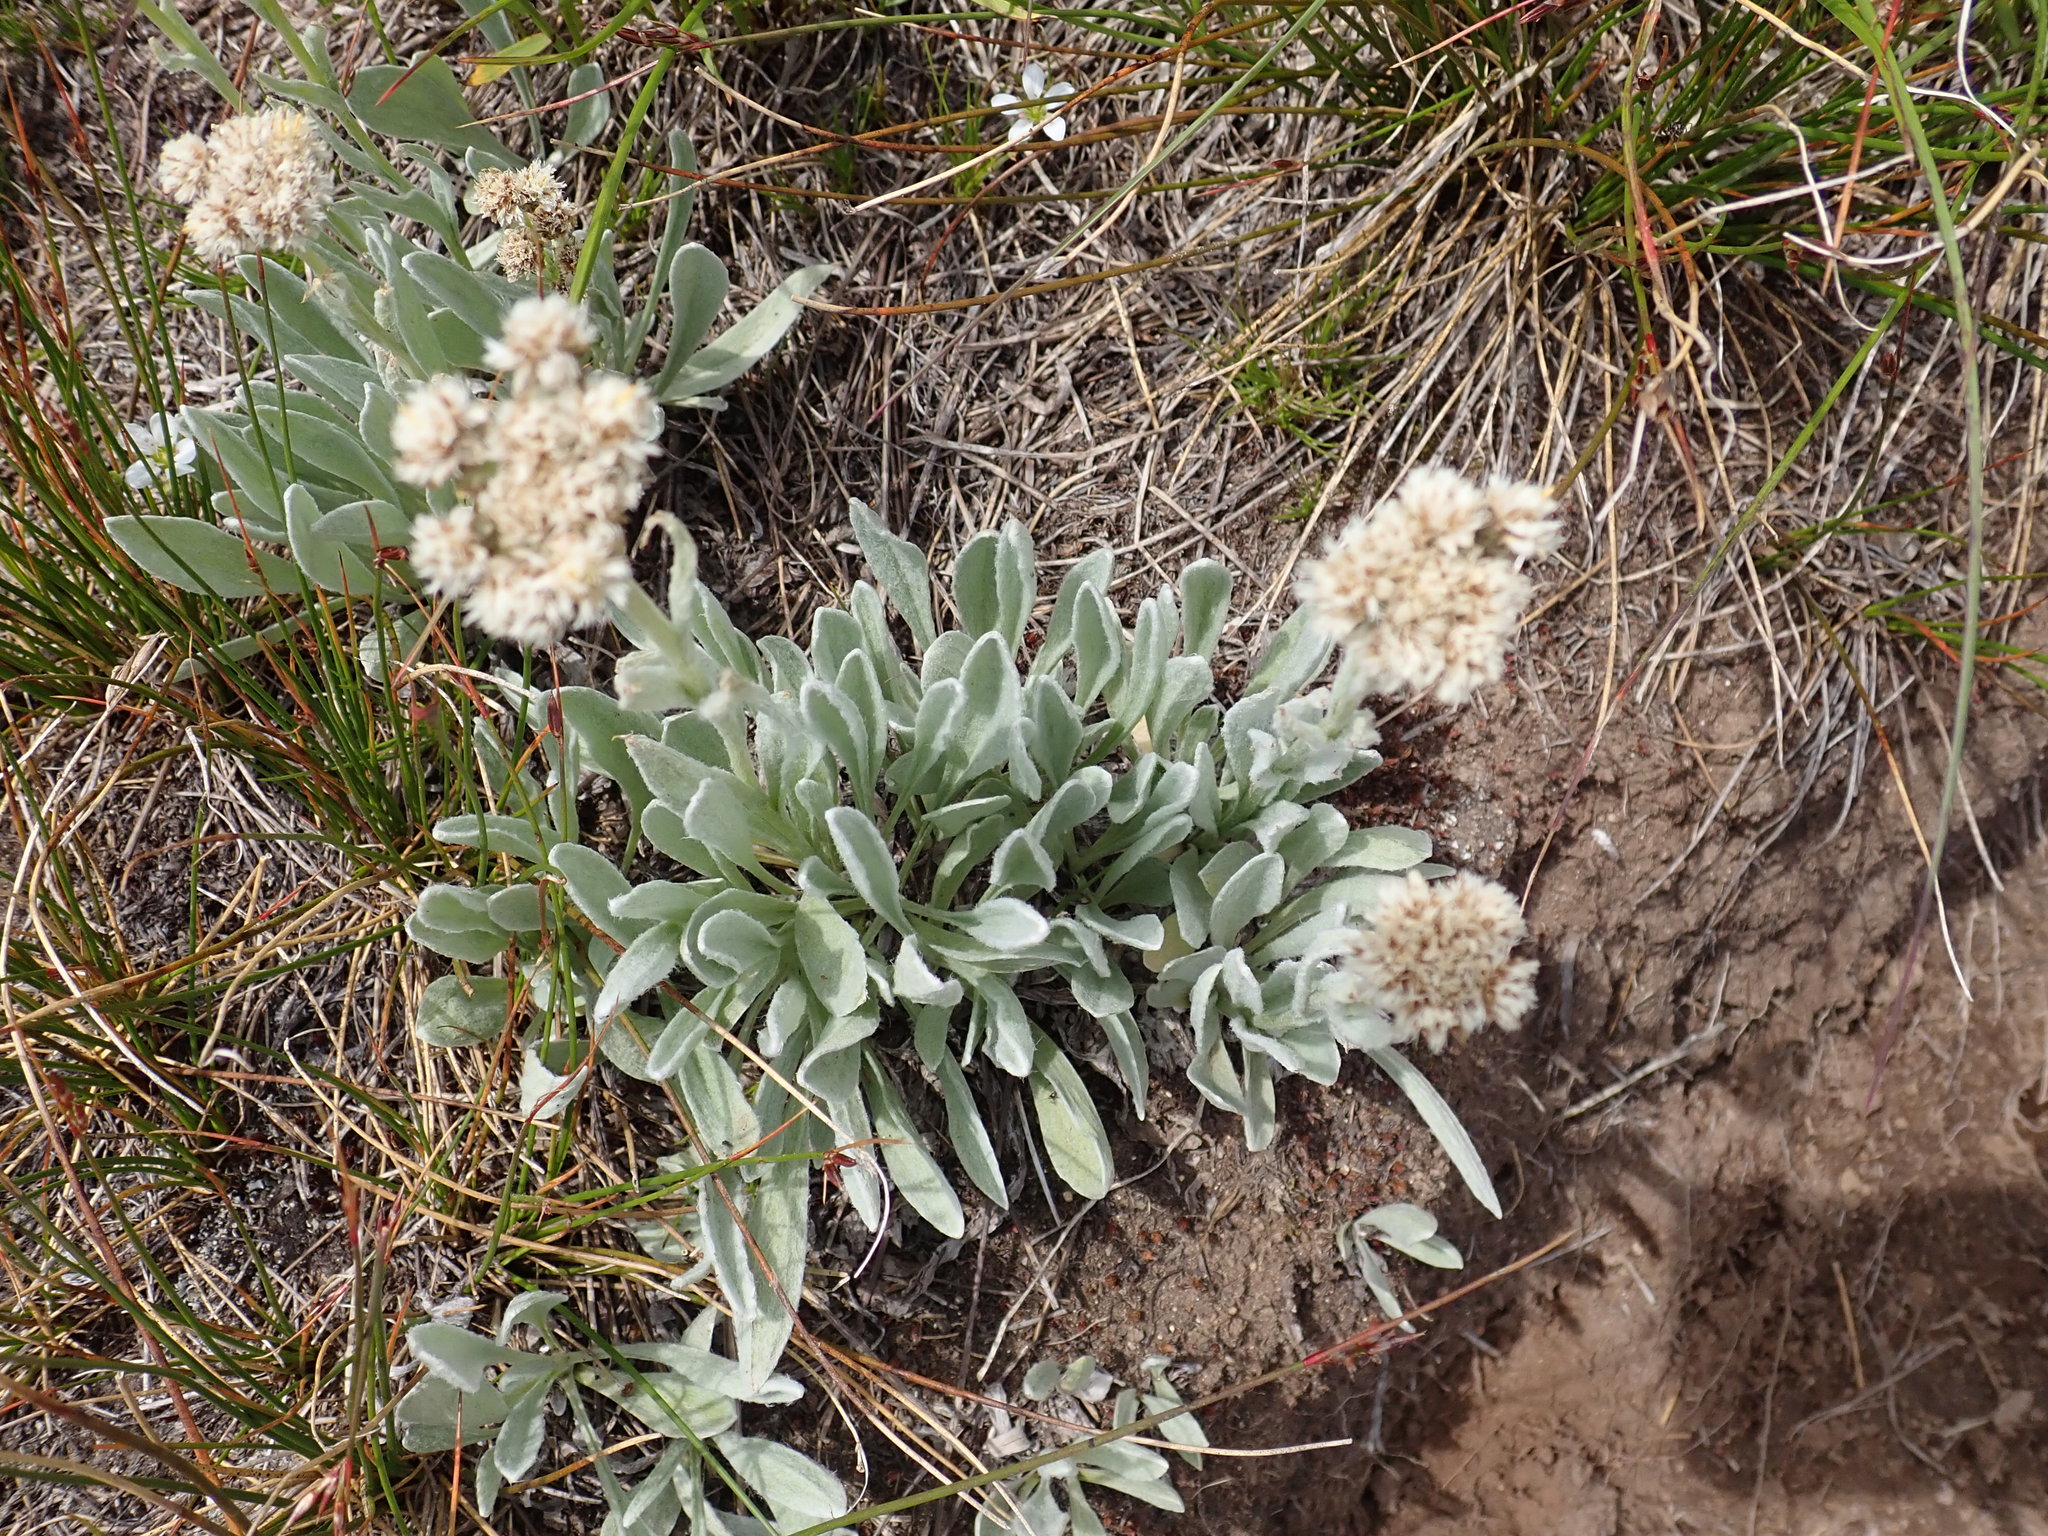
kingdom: Plantae
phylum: Tracheophyta
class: Magnoliopsida
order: Asterales
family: Asteraceae
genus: Antennaria
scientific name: Antennaria lanata
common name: Woolly pussytoes
